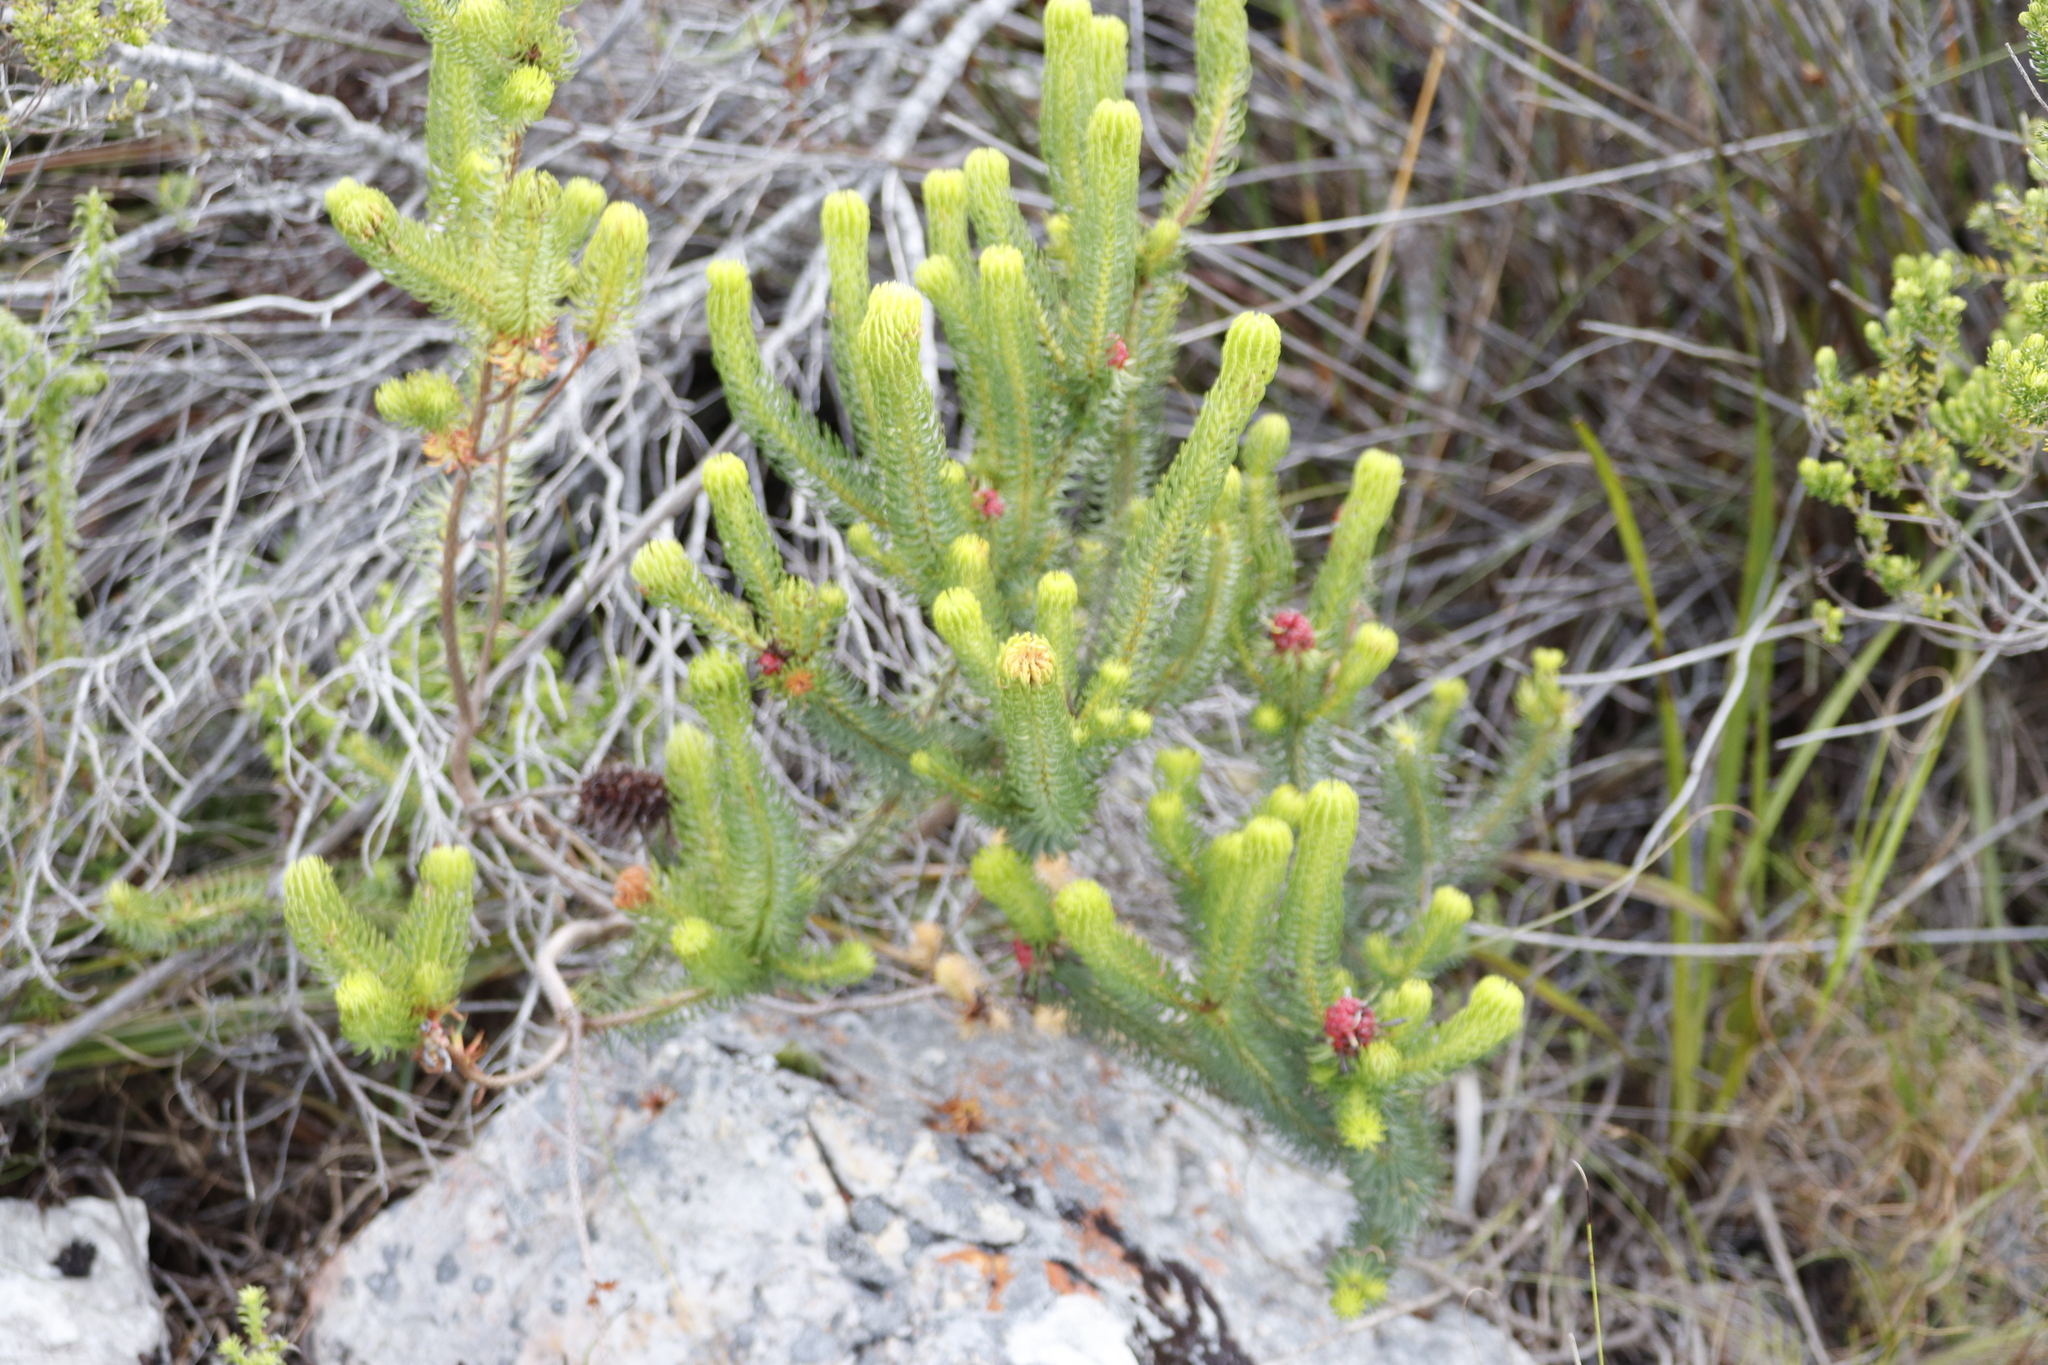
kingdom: Plantae
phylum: Tracheophyta
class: Magnoliopsida
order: Ericales
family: Ericaceae
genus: Erica
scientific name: Erica sessiliflora
